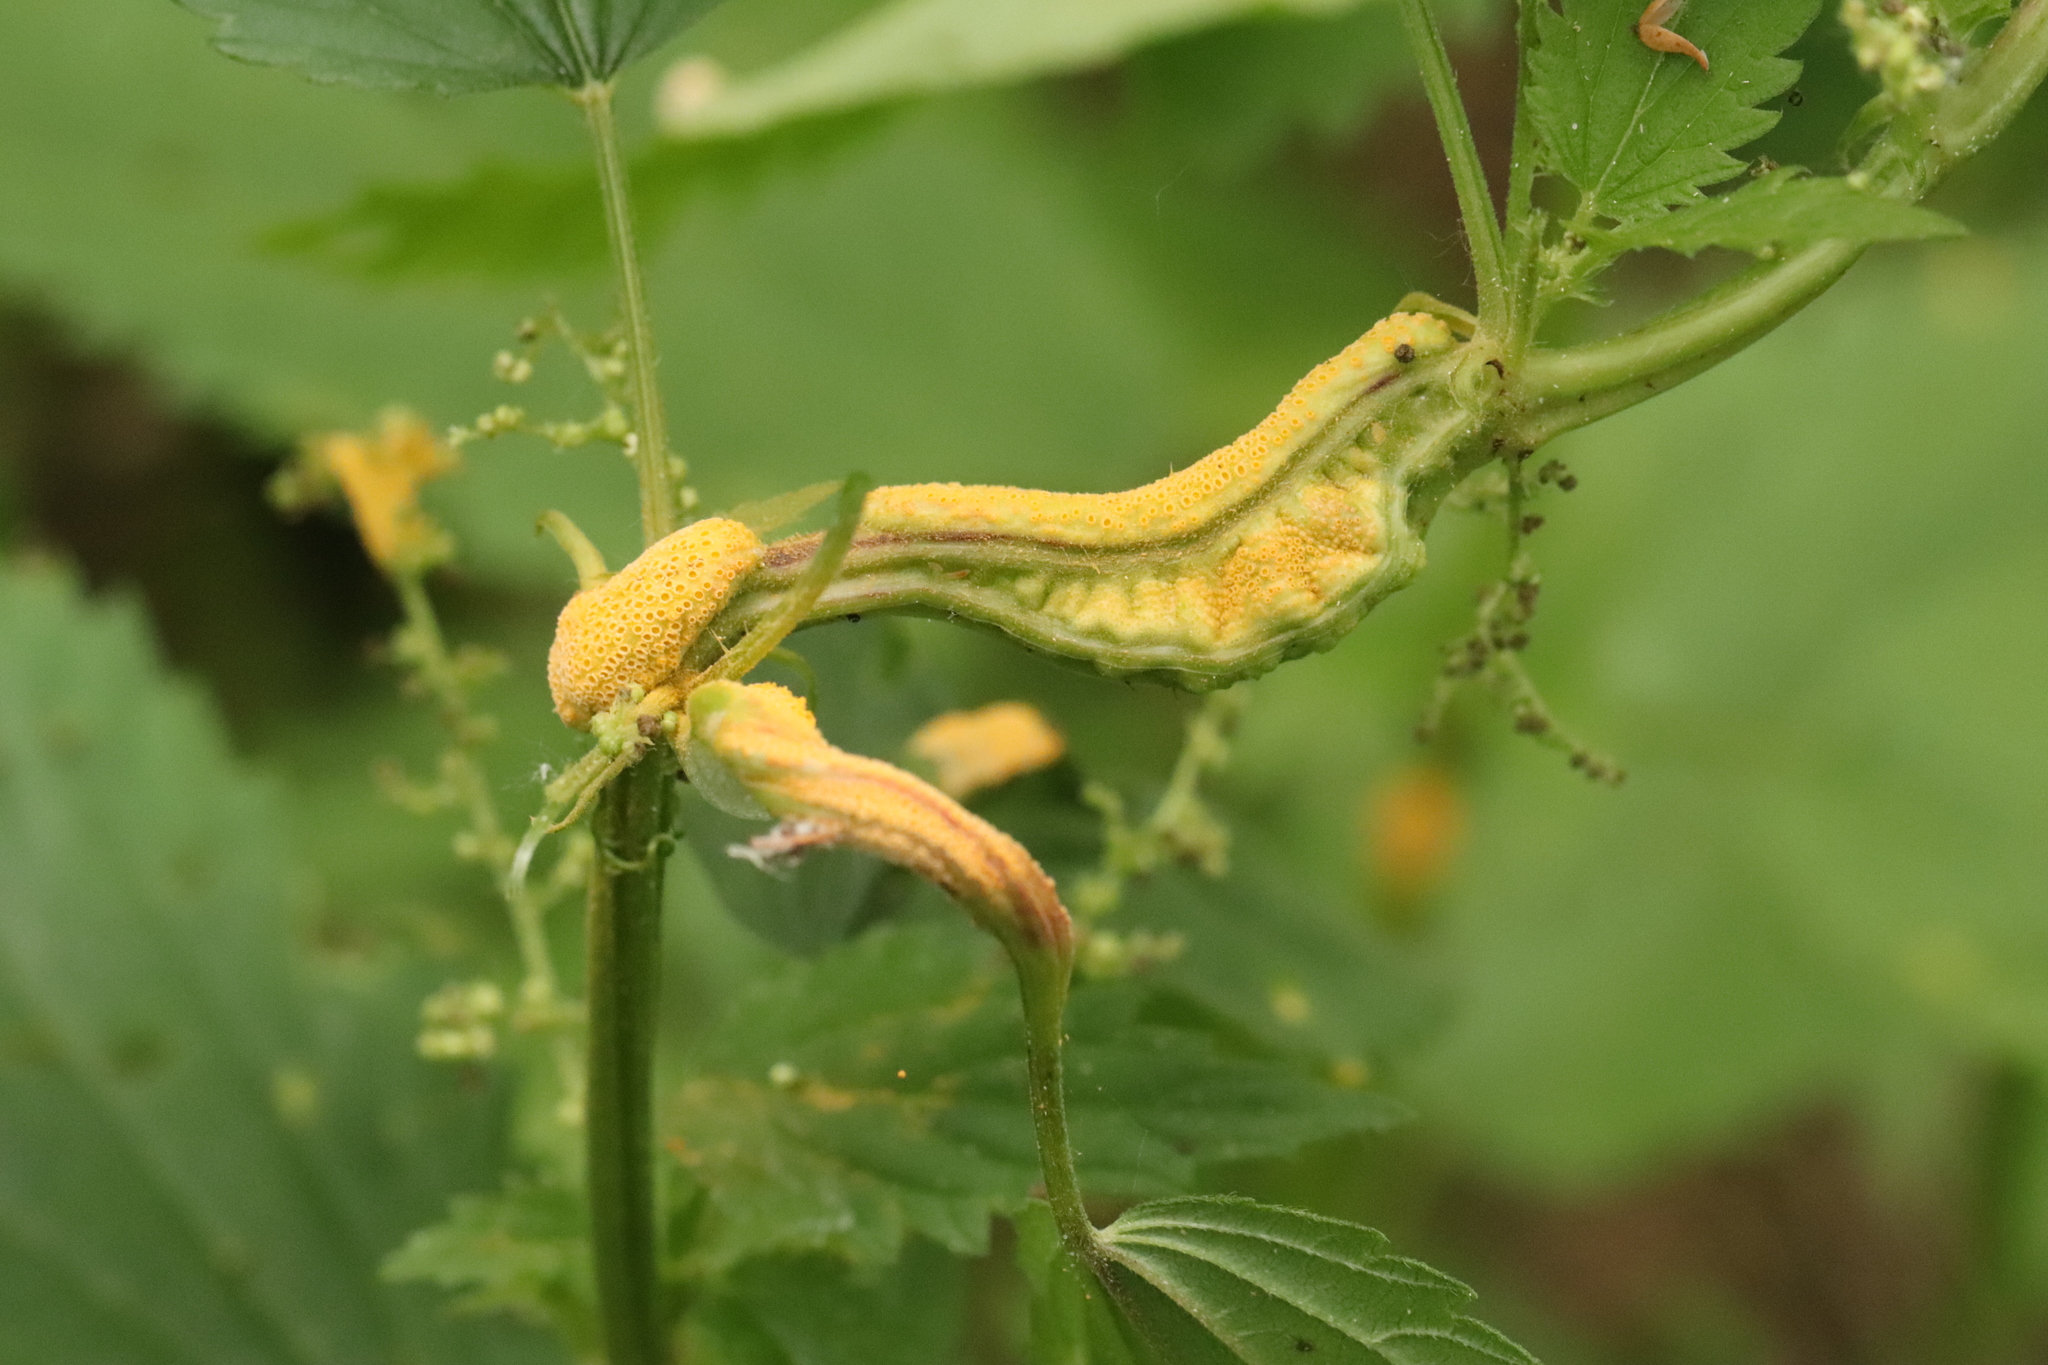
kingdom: Fungi
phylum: Basidiomycota
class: Pucciniomycetes
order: Pucciniales
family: Pucciniaceae
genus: Puccinia
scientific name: Puccinia urticata
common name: Nettle clustercup rust fungus
